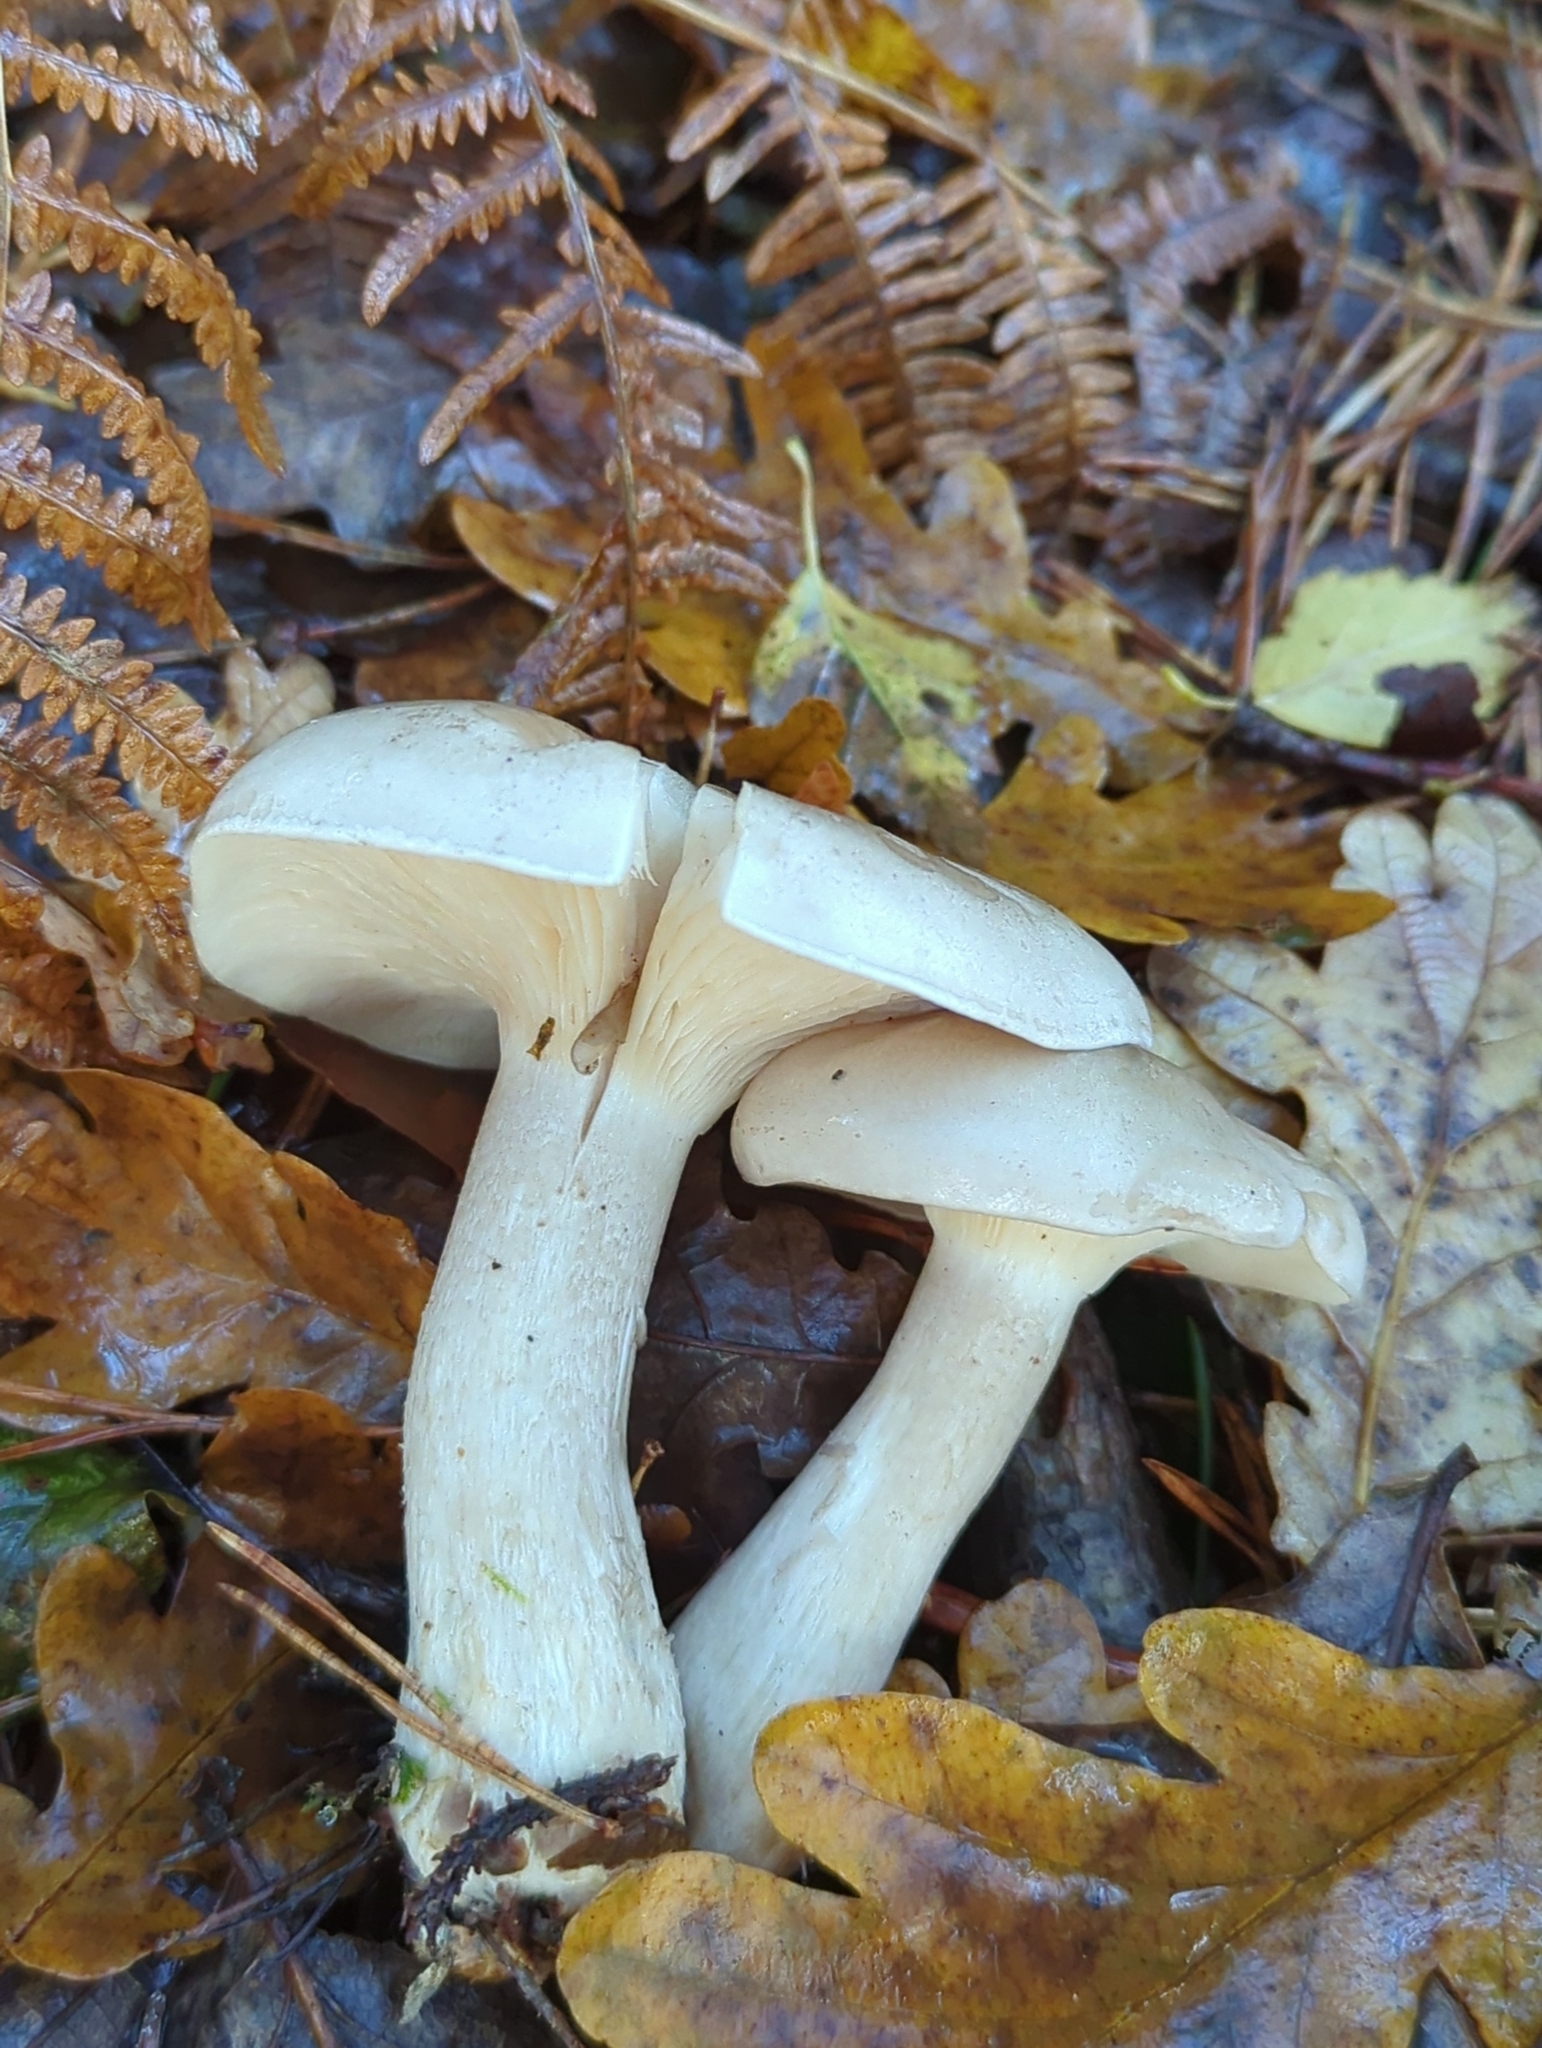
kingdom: Fungi
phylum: Basidiomycota
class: Agaricomycetes
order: Agaricales
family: Tricholomataceae
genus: Clitocybe
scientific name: Clitocybe nebularis
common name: Clouded agaric
